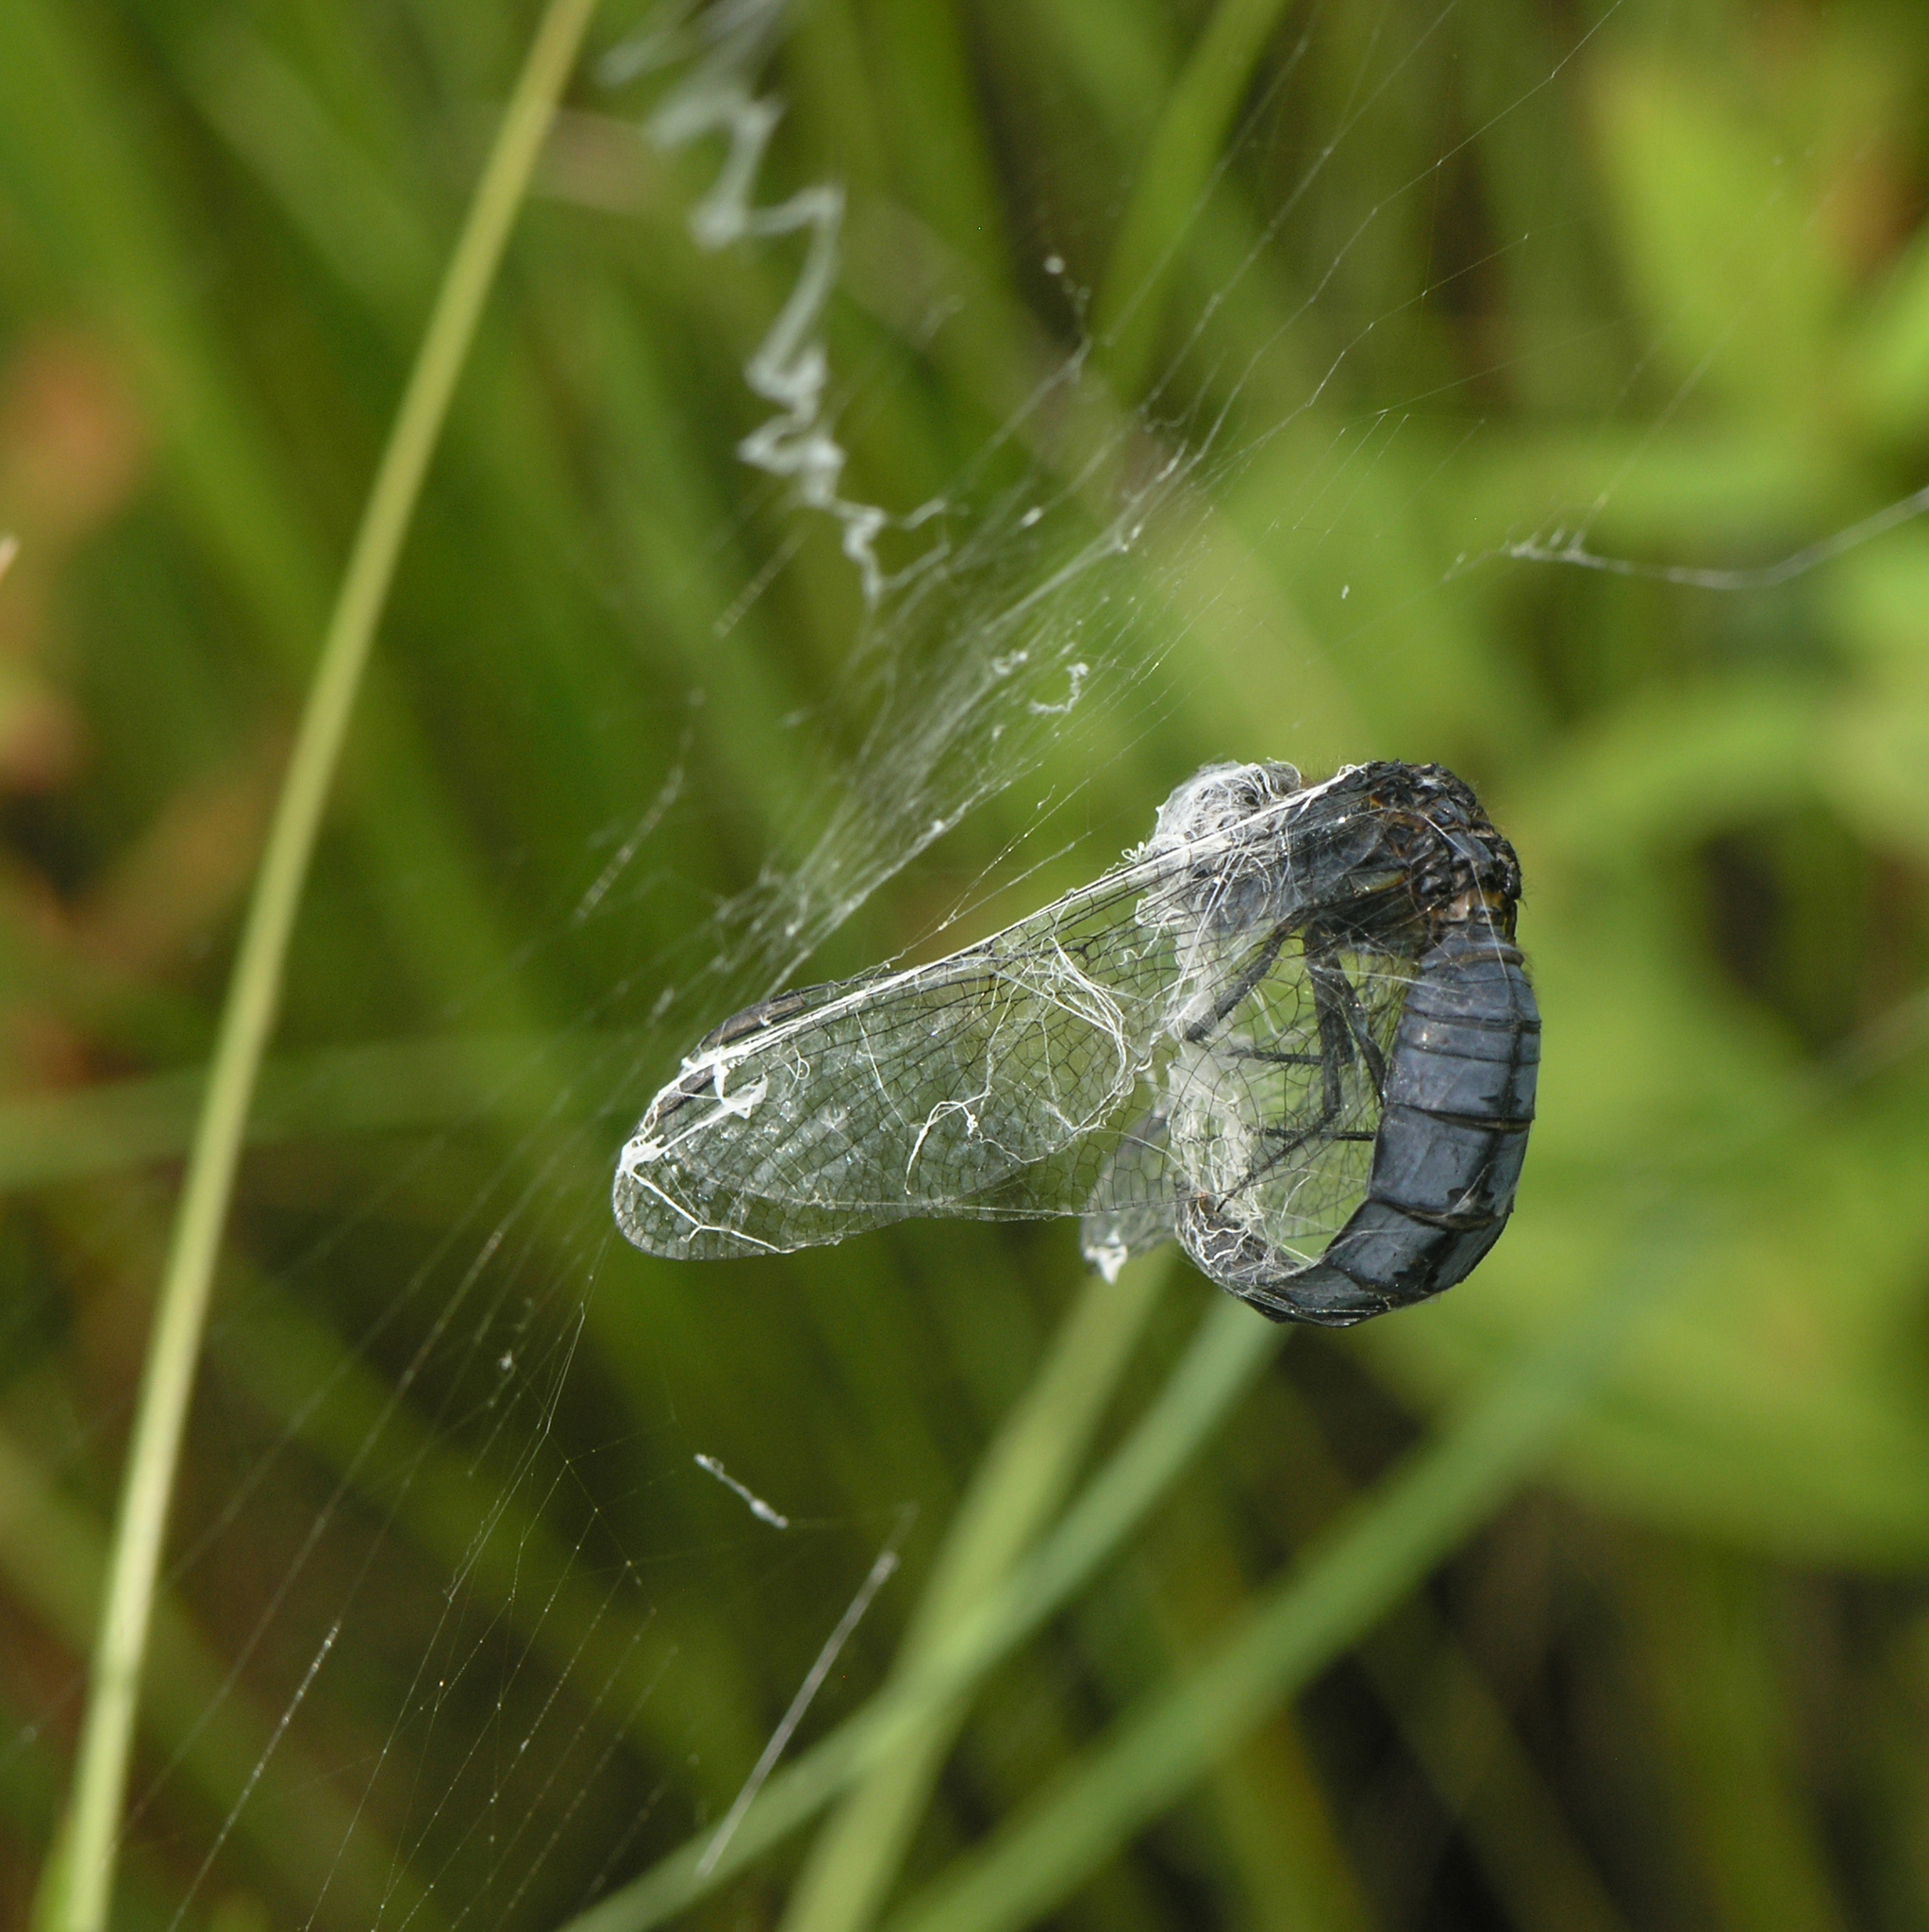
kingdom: Animalia
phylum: Arthropoda
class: Insecta
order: Odonata
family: Libellulidae
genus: Lyriothemis
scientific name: Lyriothemis pachygastra
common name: Wide-bellied skimmer
